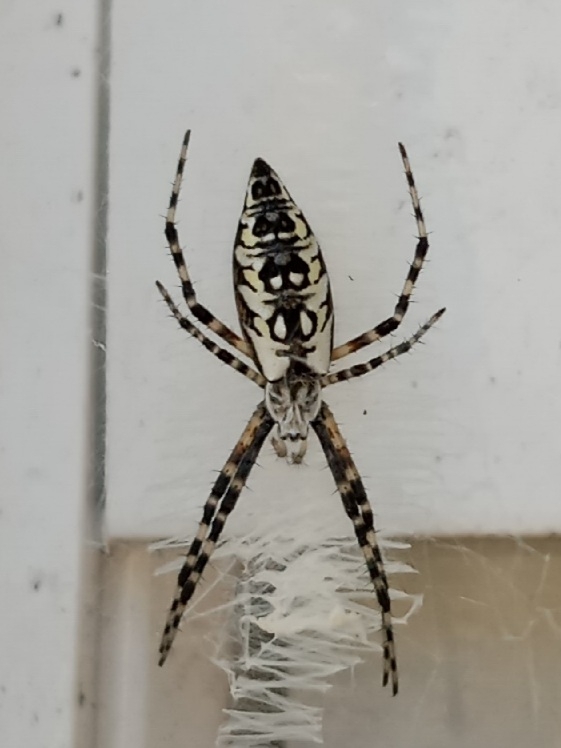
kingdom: Animalia
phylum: Arthropoda
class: Arachnida
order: Araneae
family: Araneidae
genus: Argiope
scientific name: Argiope aurantia
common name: Orb weavers
